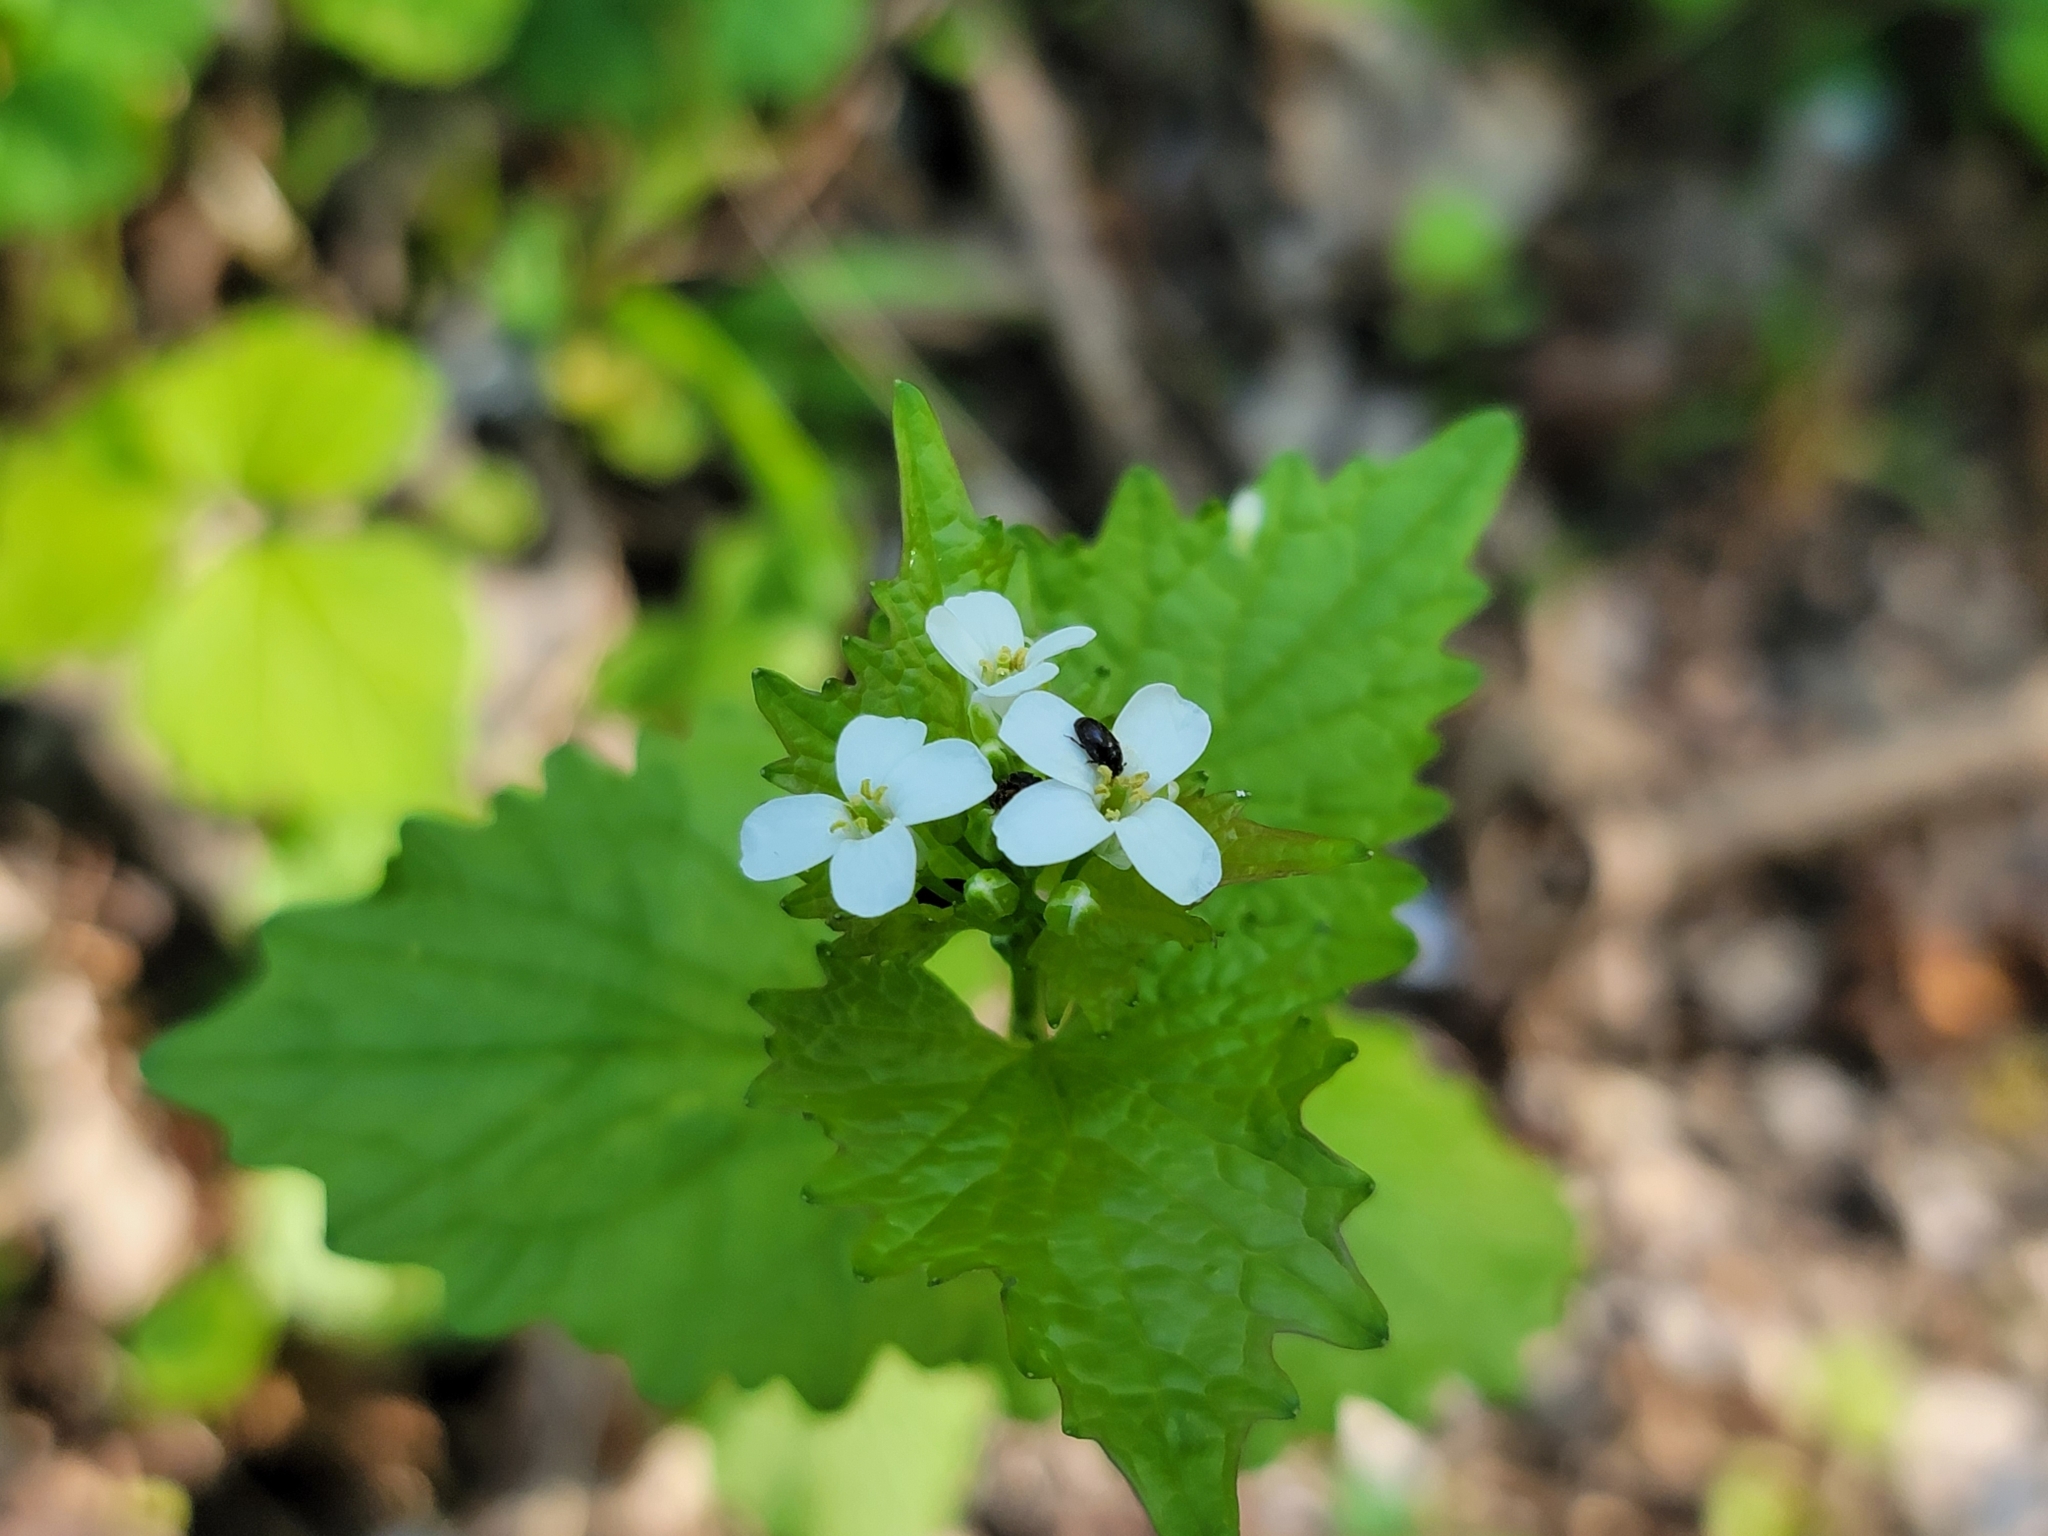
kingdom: Plantae
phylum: Tracheophyta
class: Magnoliopsida
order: Brassicales
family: Brassicaceae
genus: Alliaria
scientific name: Alliaria petiolata
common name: Garlic mustard
